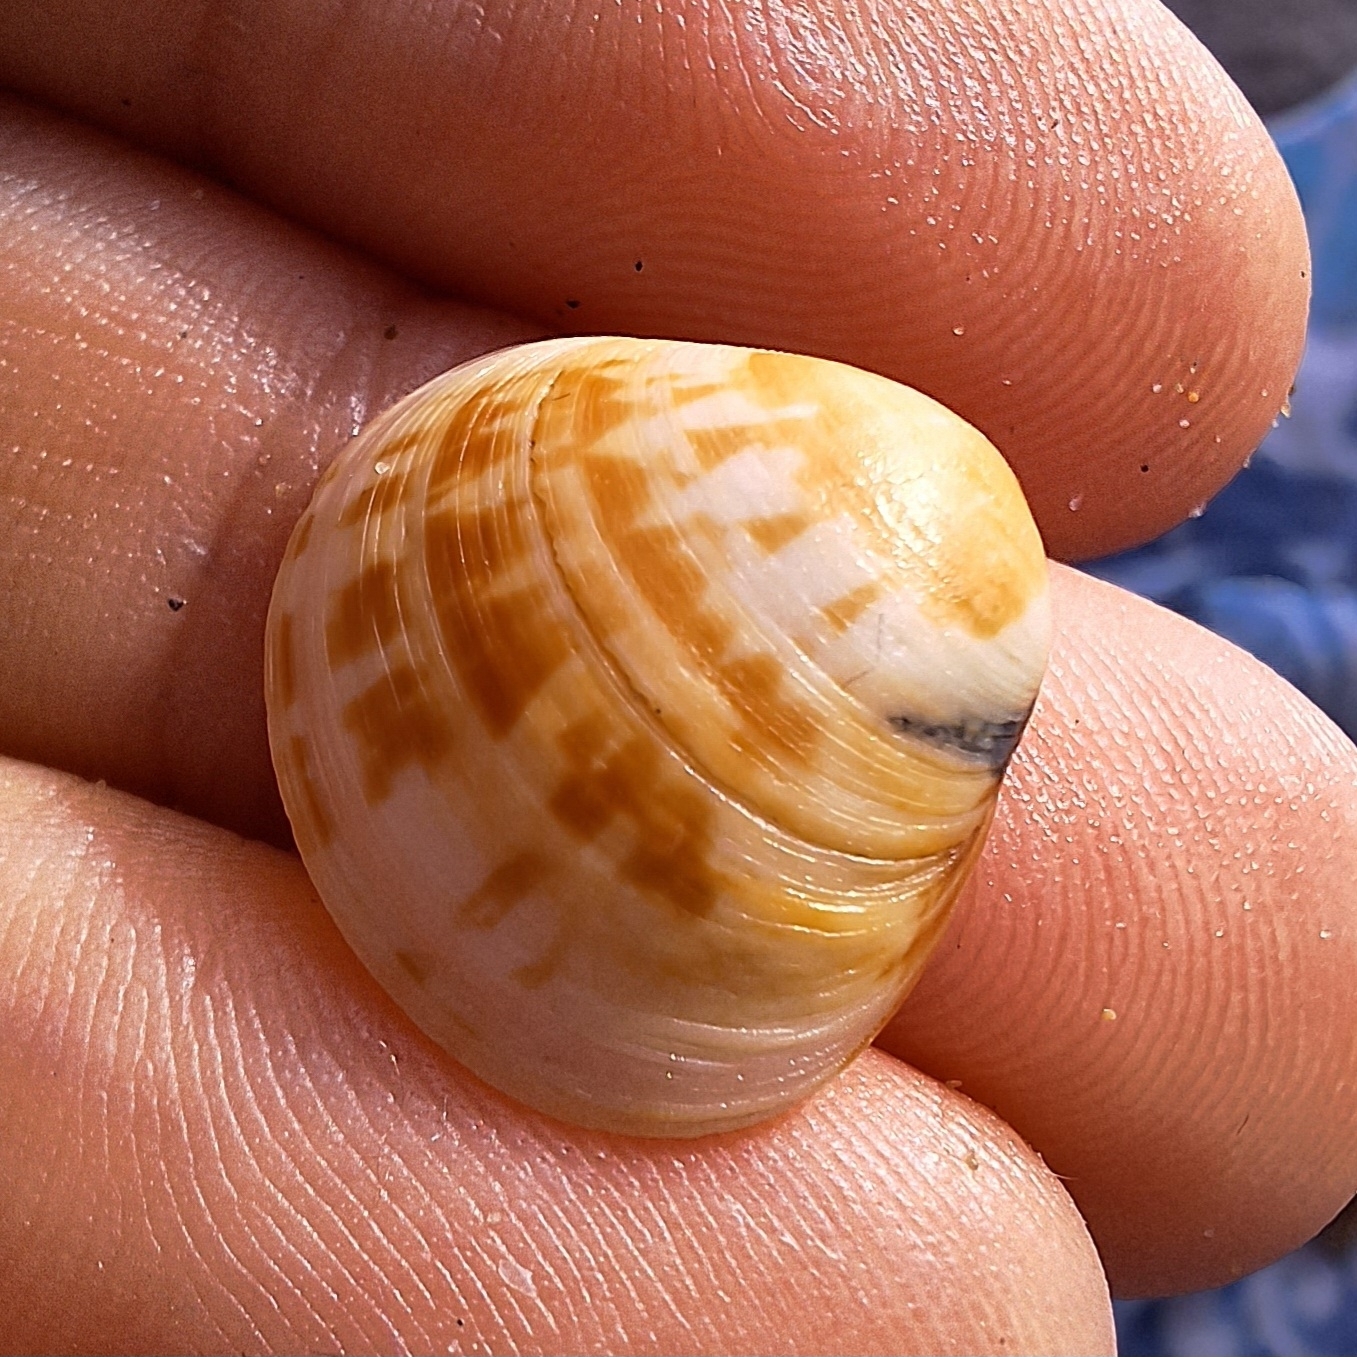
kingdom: Animalia
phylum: Mollusca
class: Bivalvia
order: Venerida
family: Veneridae
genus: Pitar
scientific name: Pitar rudis
